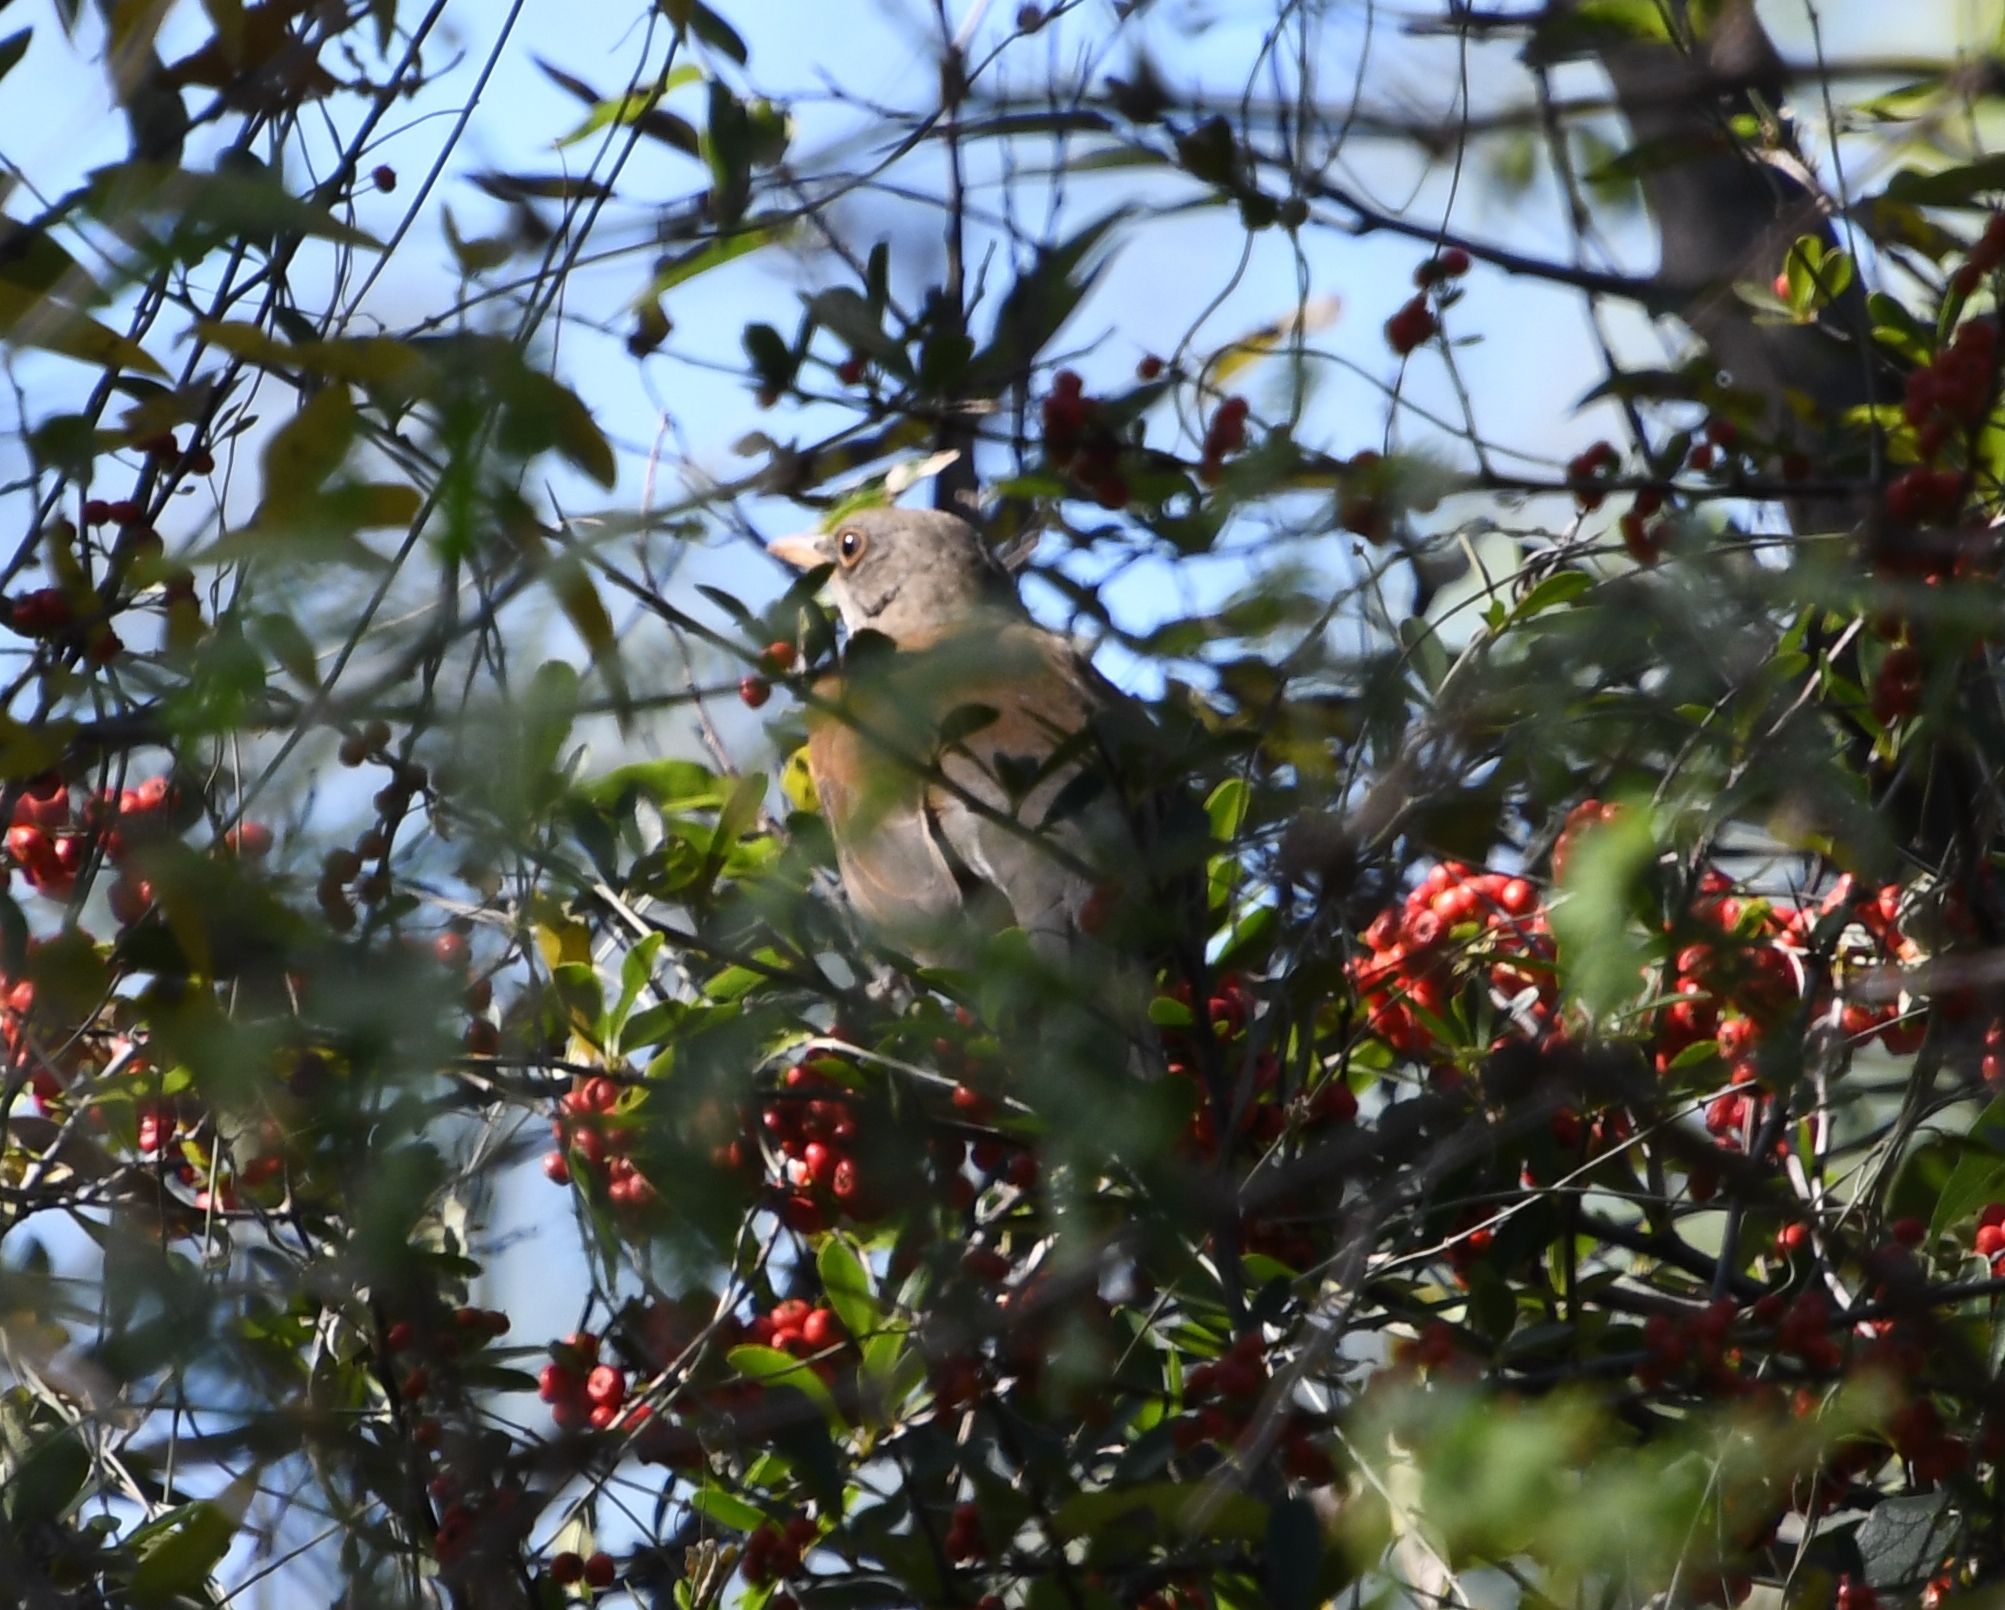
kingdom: Animalia
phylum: Chordata
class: Aves
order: Passeriformes
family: Turdidae
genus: Turdus
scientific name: Turdus rufopalliatus
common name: Rufous-backed robin
